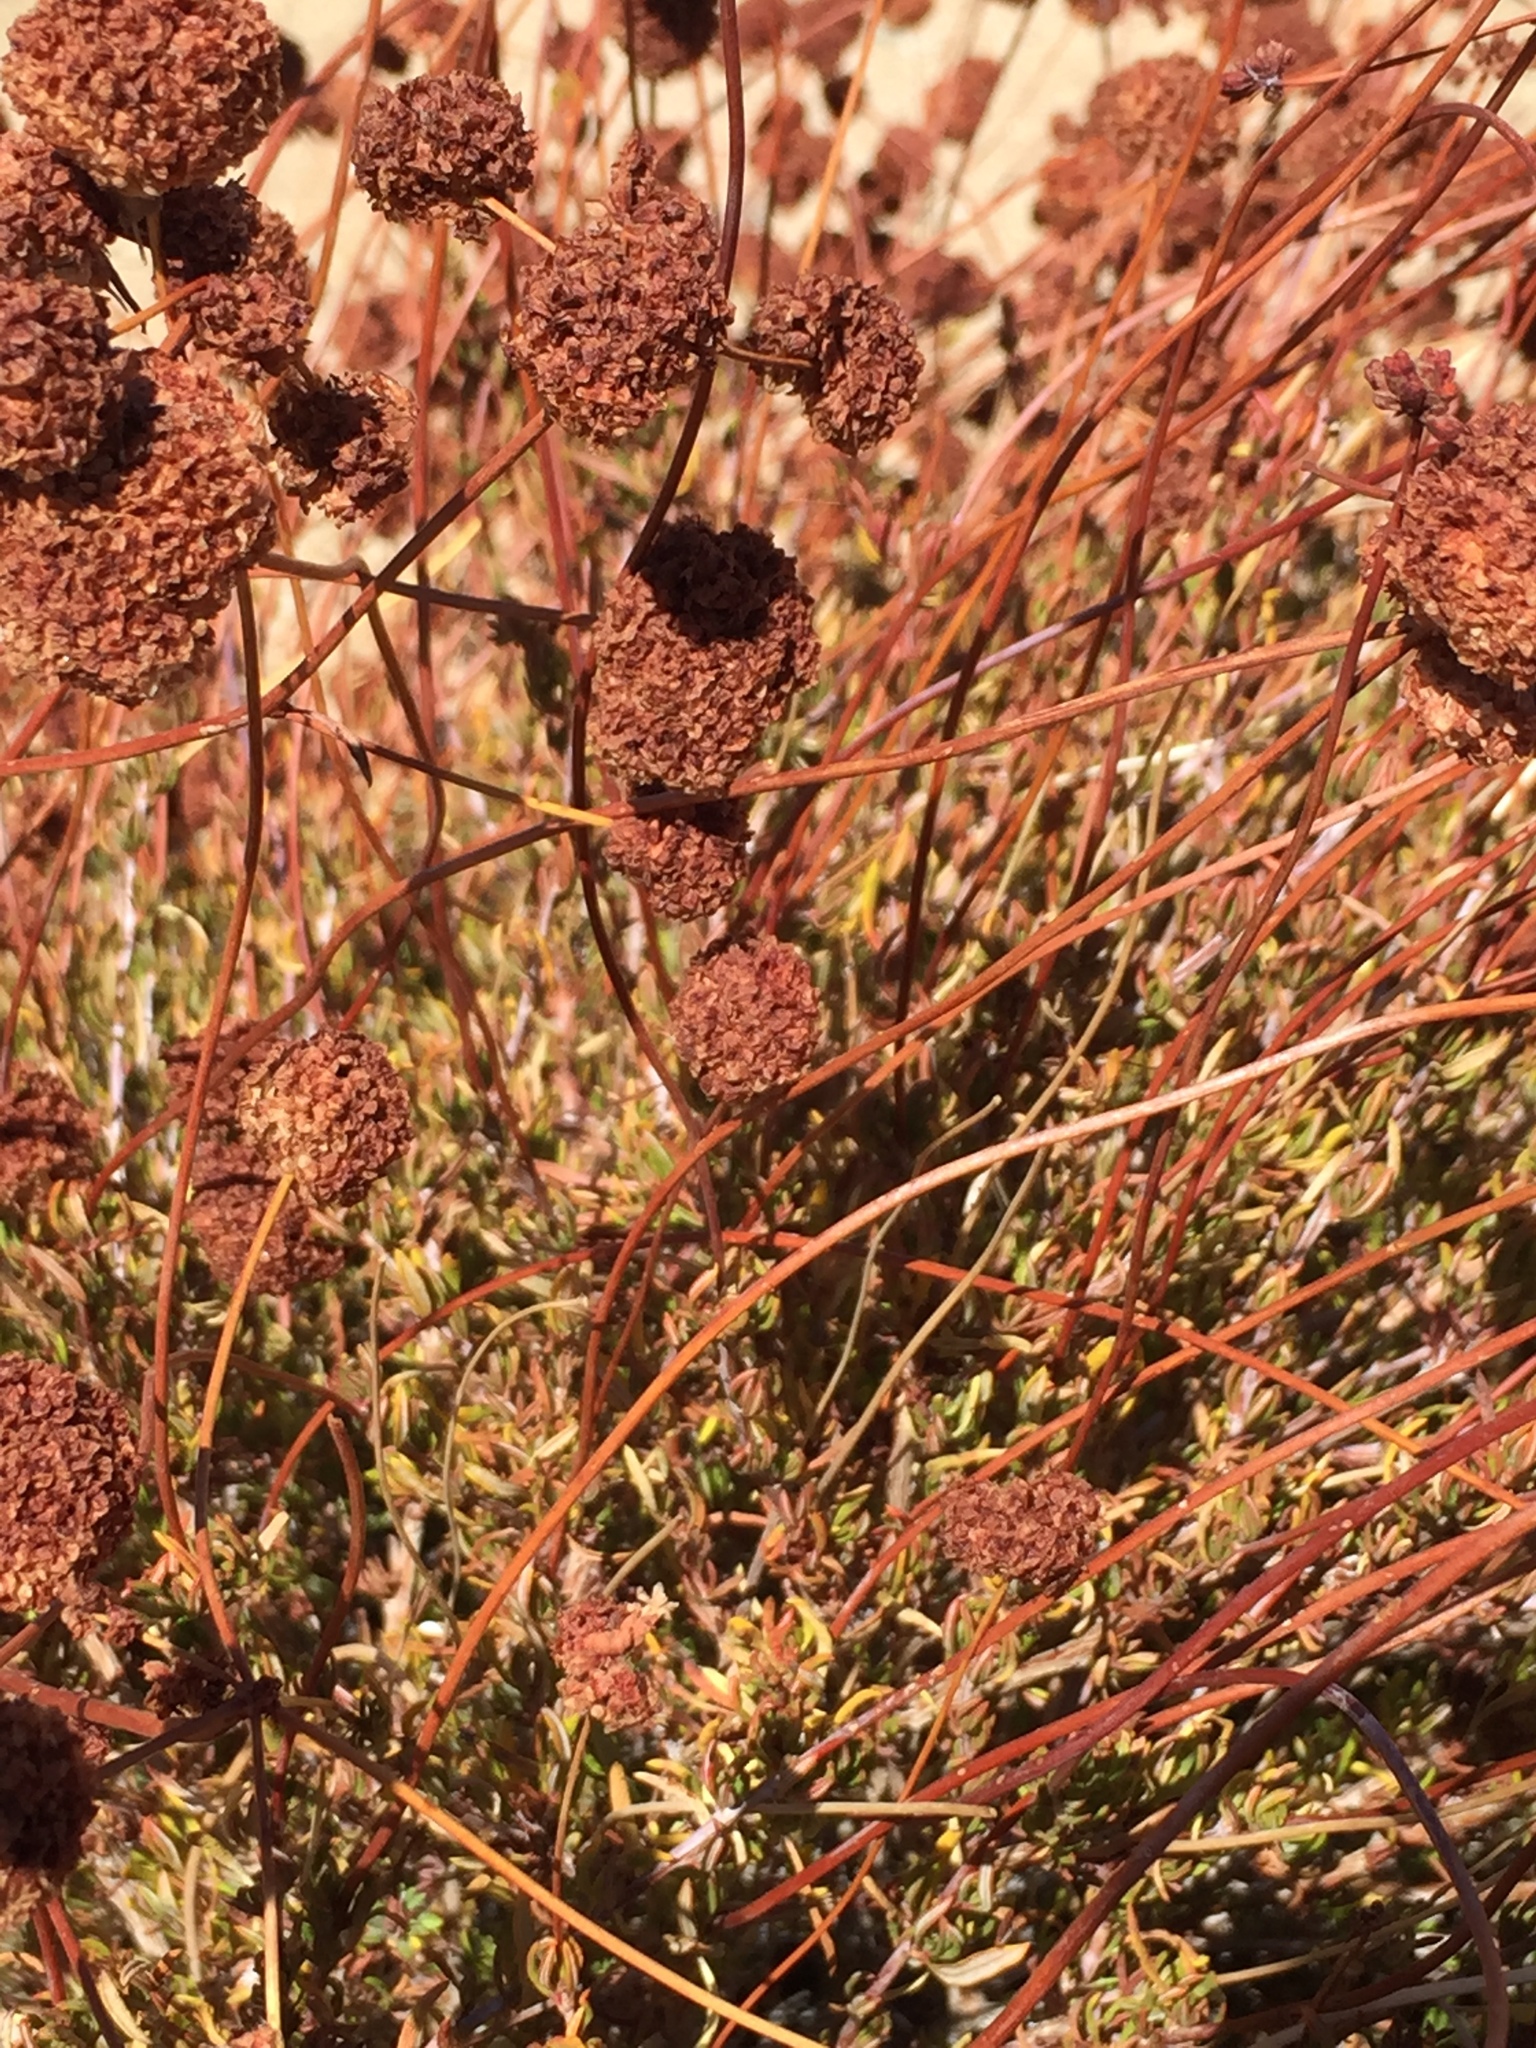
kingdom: Plantae
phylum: Tracheophyta
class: Magnoliopsida
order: Caryophyllales
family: Polygonaceae
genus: Eriogonum
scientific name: Eriogonum fasciculatum
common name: California wild buckwheat
